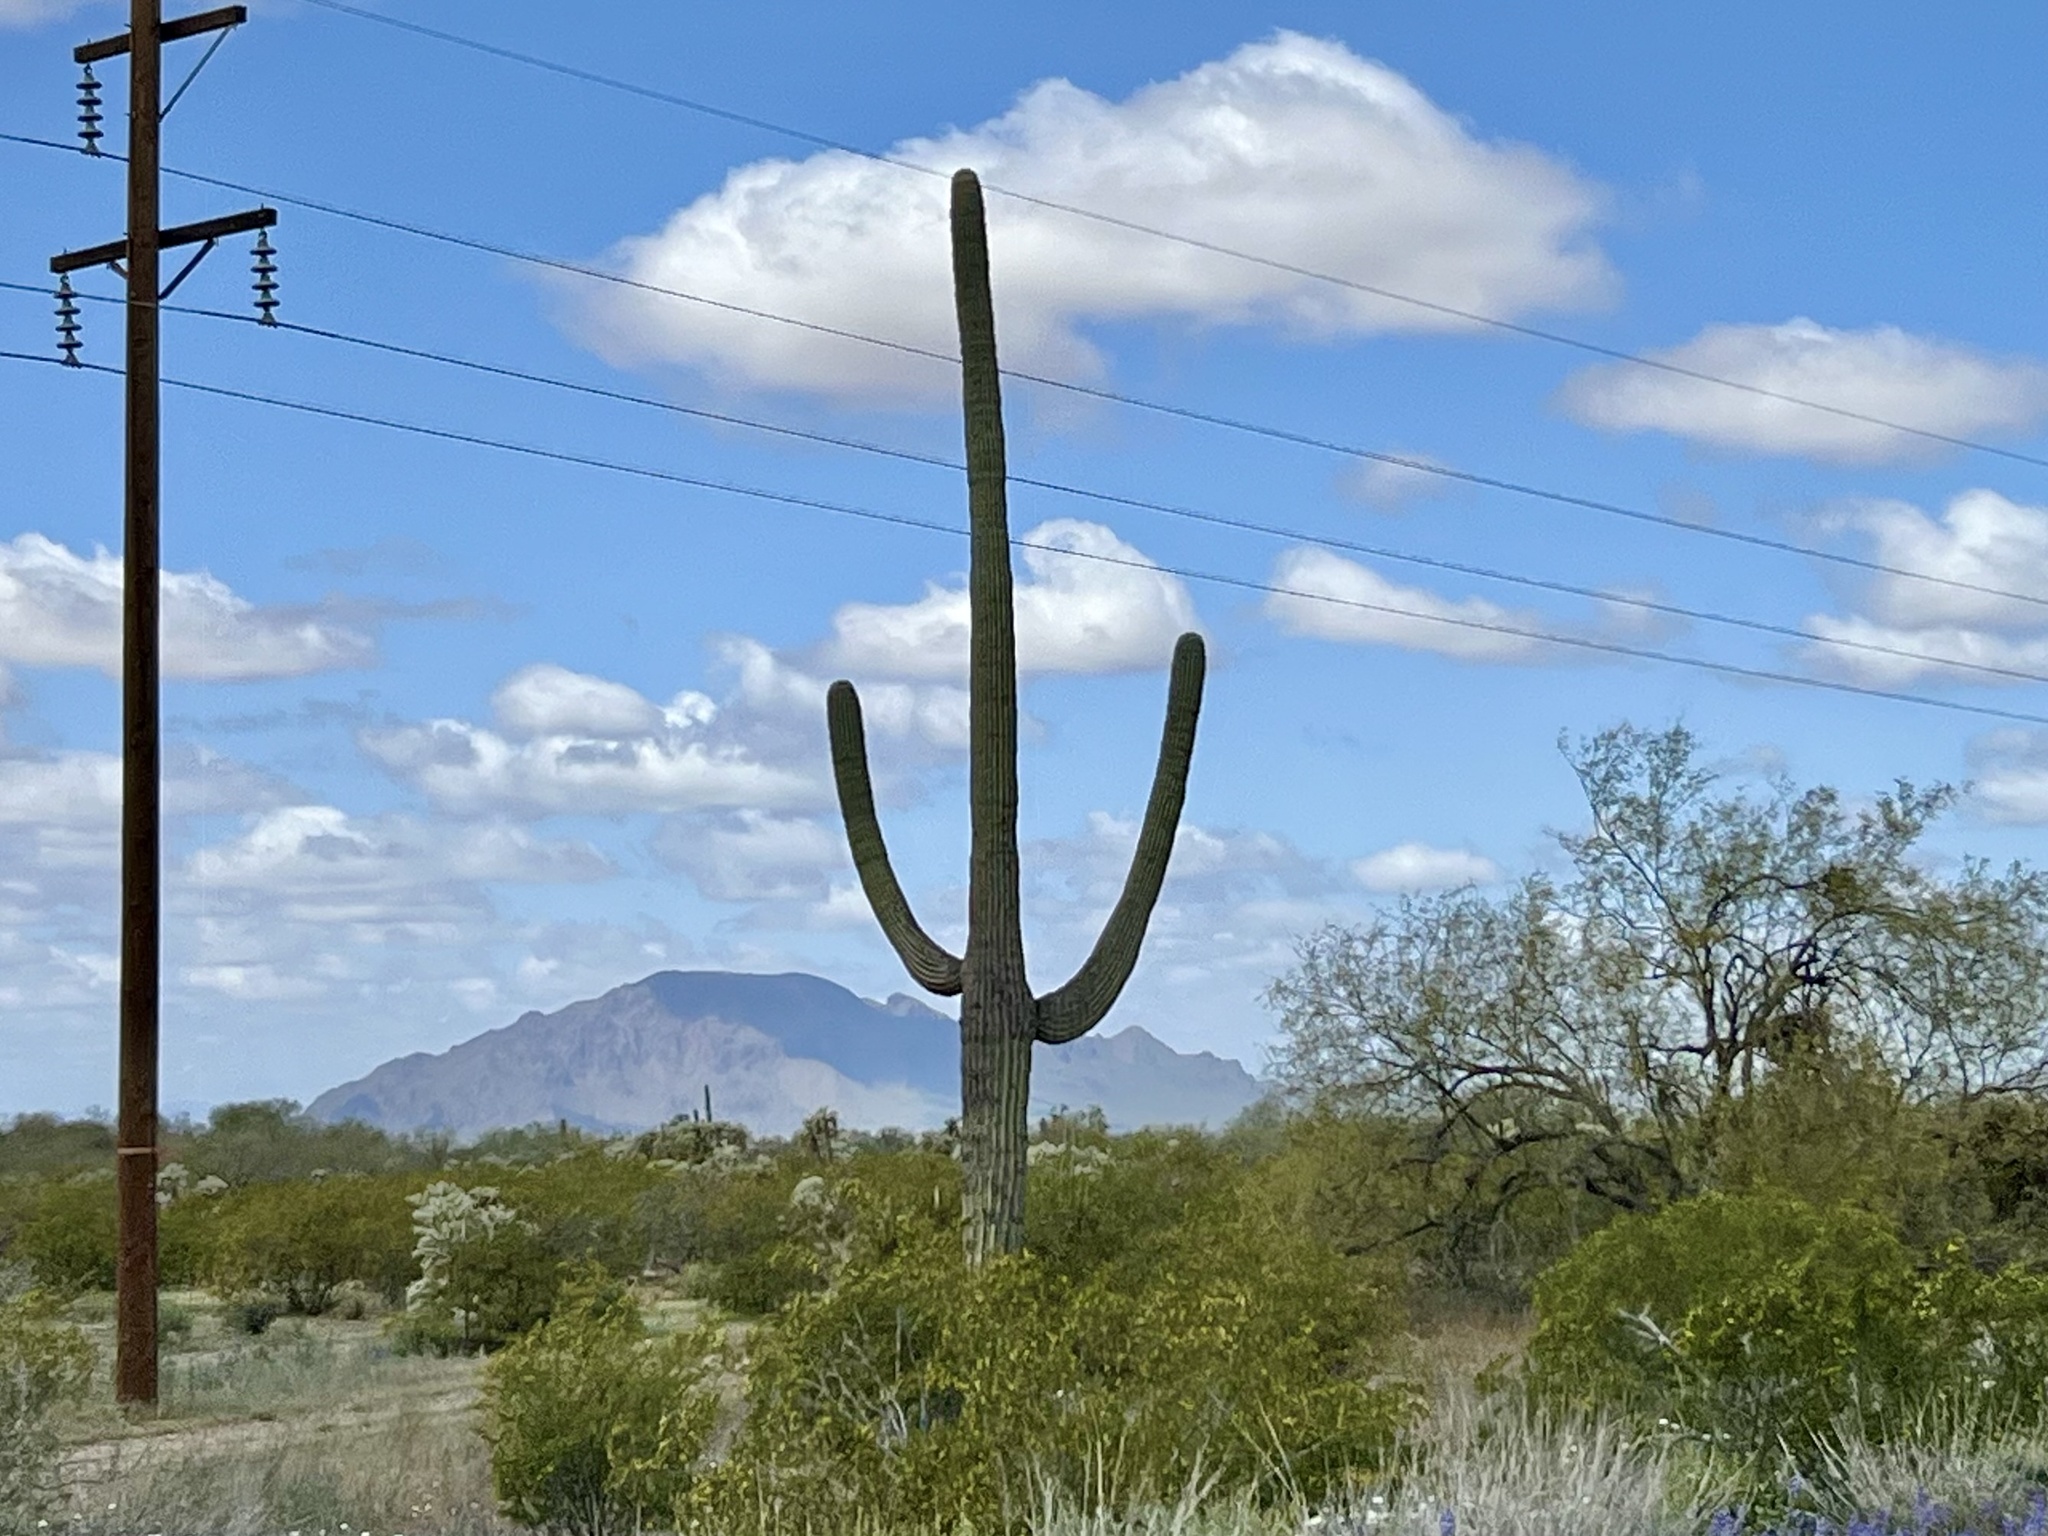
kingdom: Plantae
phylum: Tracheophyta
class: Magnoliopsida
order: Caryophyllales
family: Cactaceae
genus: Carnegiea
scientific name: Carnegiea gigantea
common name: Saguaro
